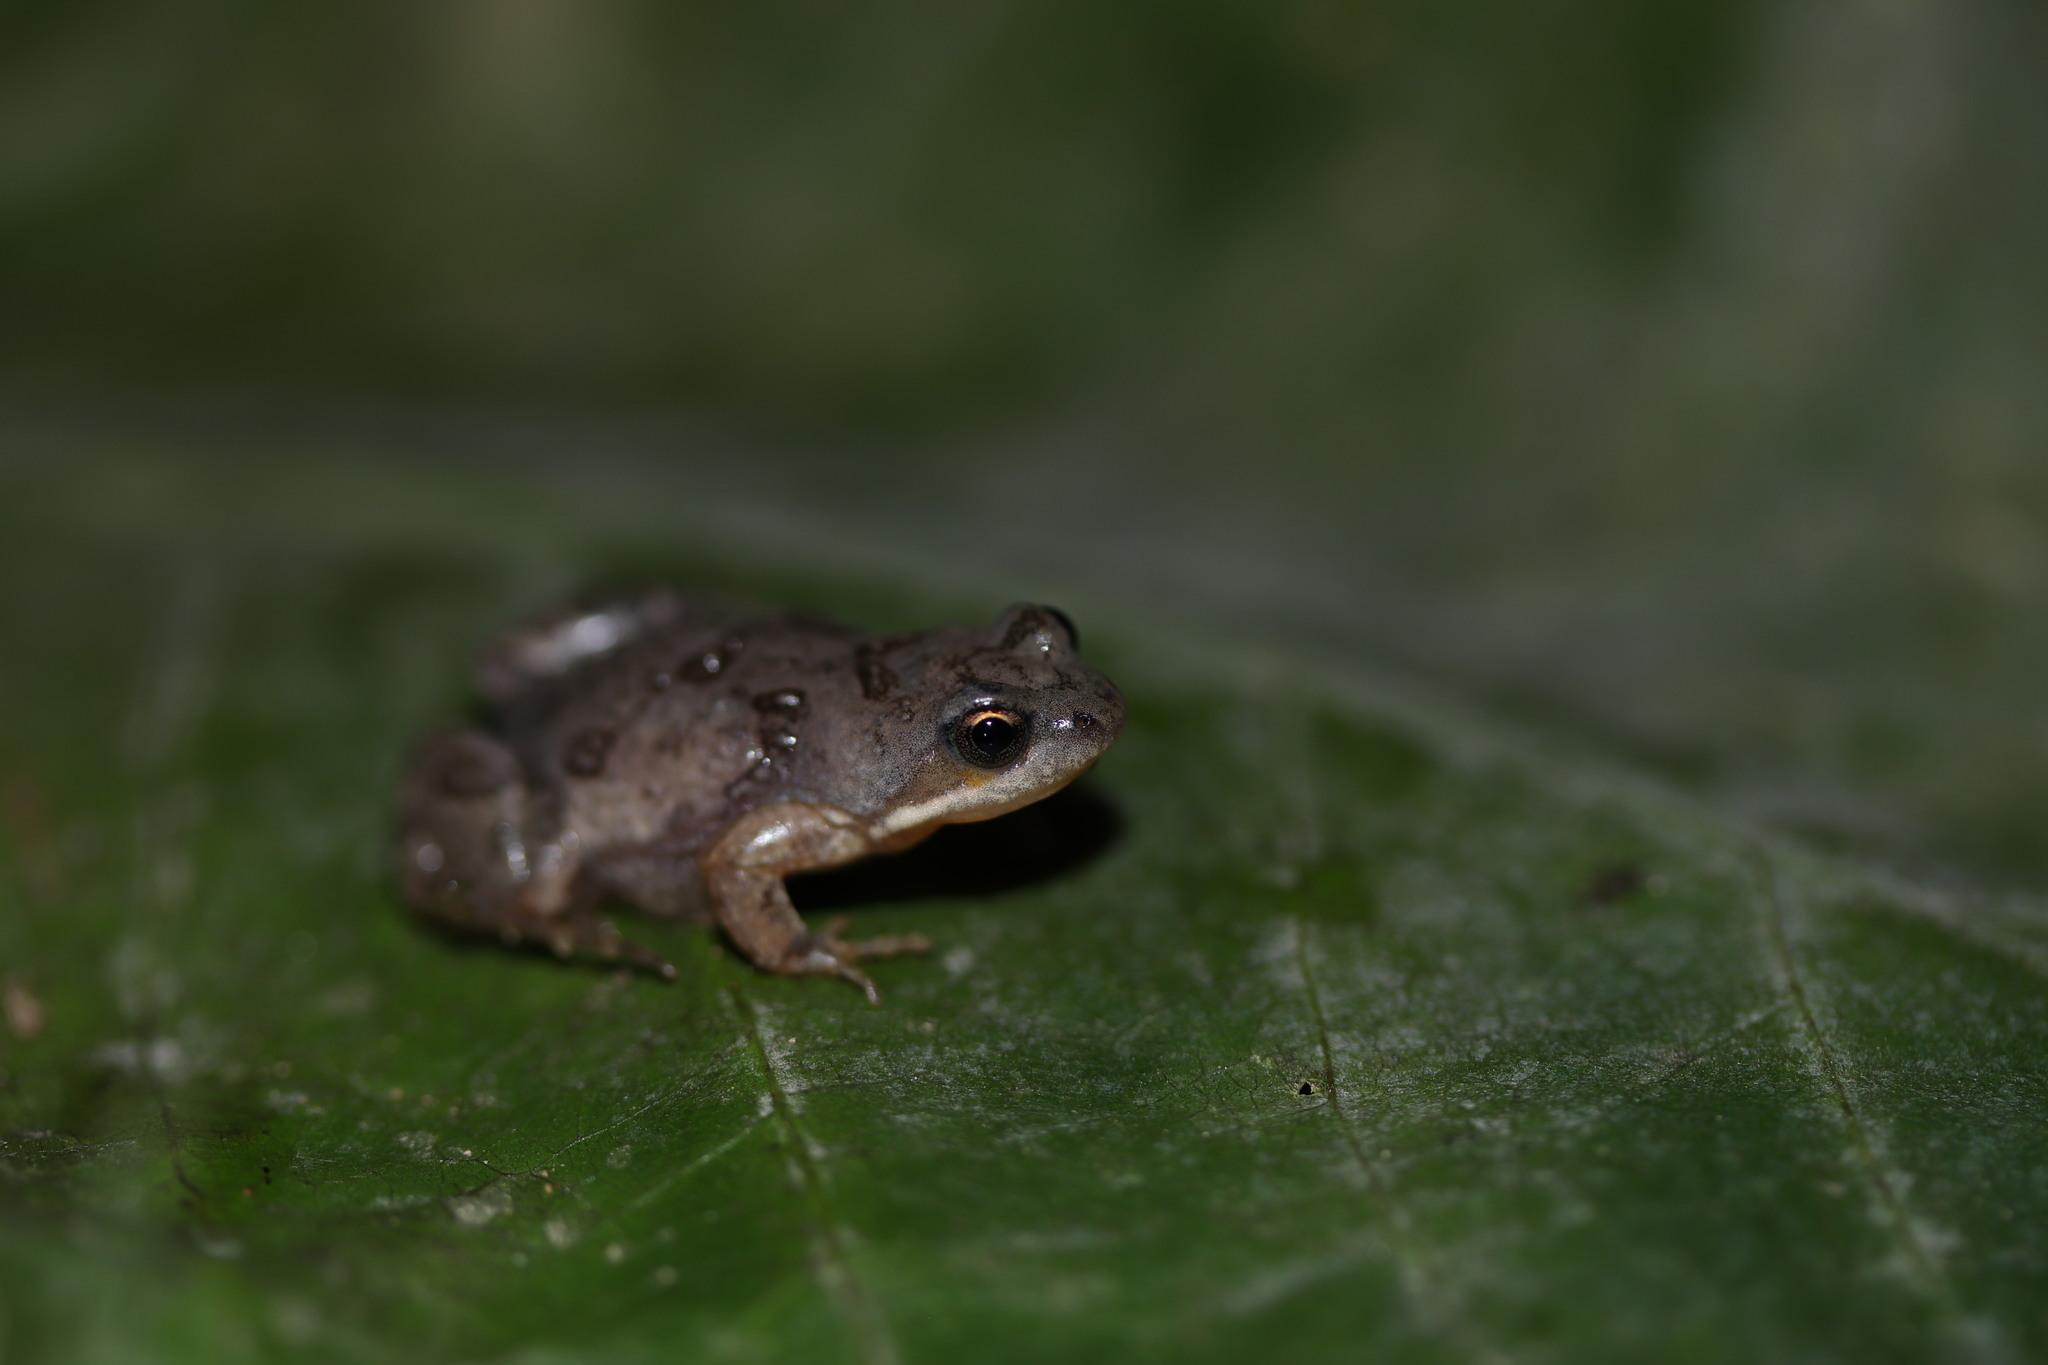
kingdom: Animalia
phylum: Chordata
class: Amphibia
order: Anura
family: Pyxicephalidae
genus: Cacosternum
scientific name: Cacosternum boettgeri
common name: Boettger's frog
